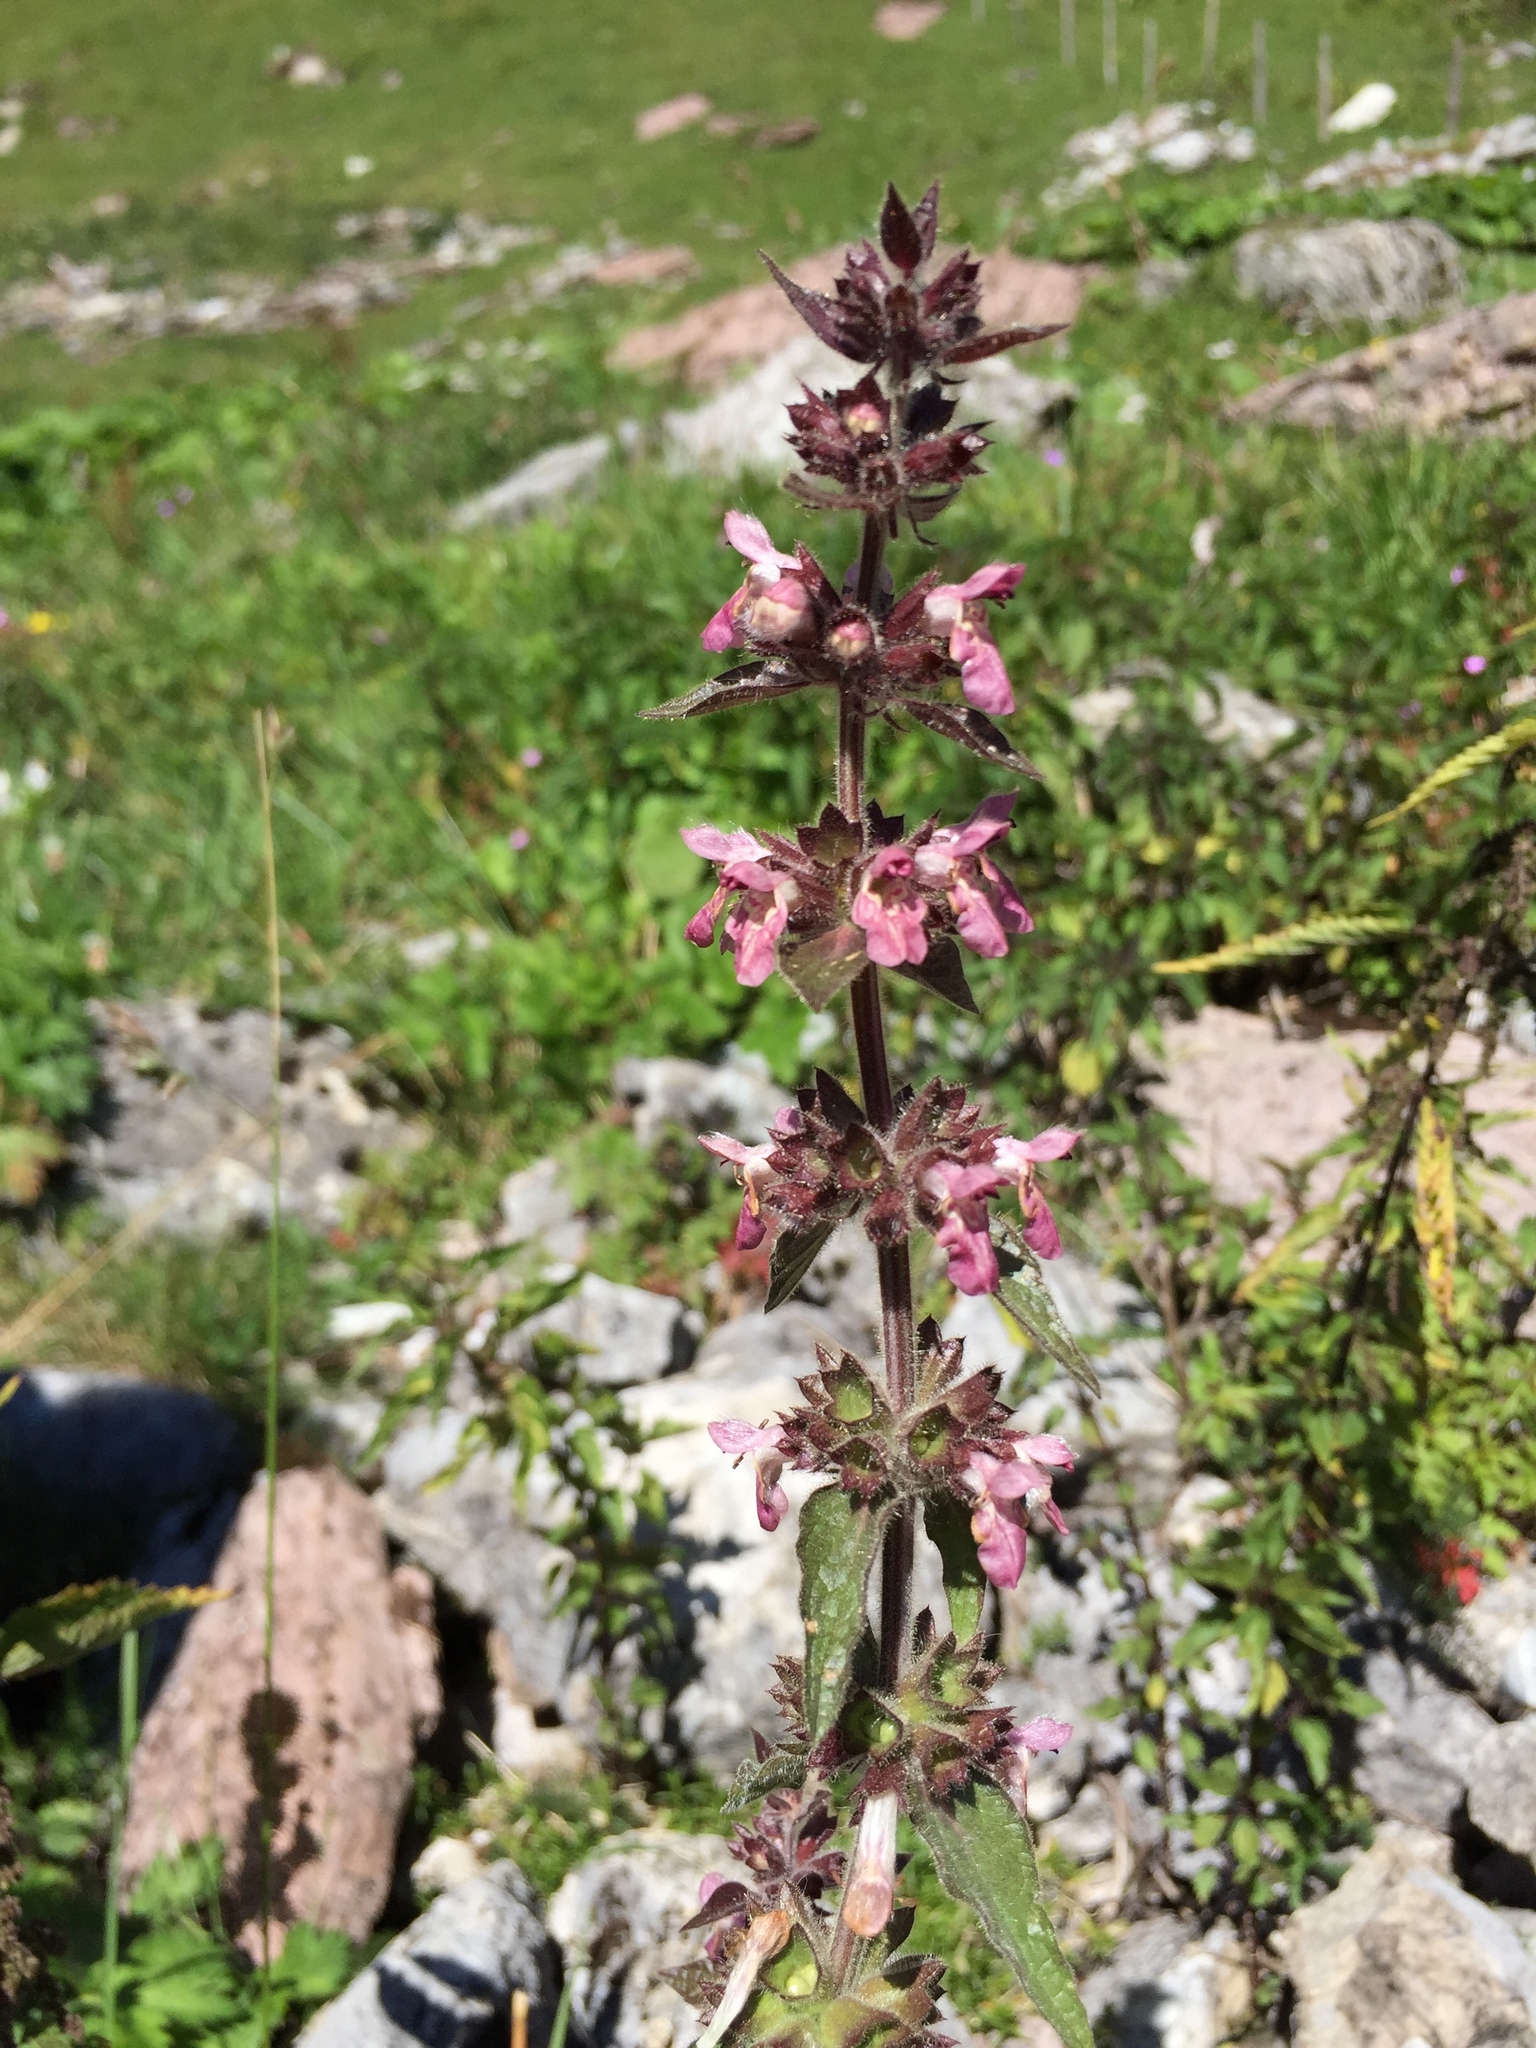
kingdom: Plantae
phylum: Tracheophyta
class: Magnoliopsida
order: Lamiales
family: Lamiaceae
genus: Stachys
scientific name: Stachys alpina
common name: Limestone woundwort
